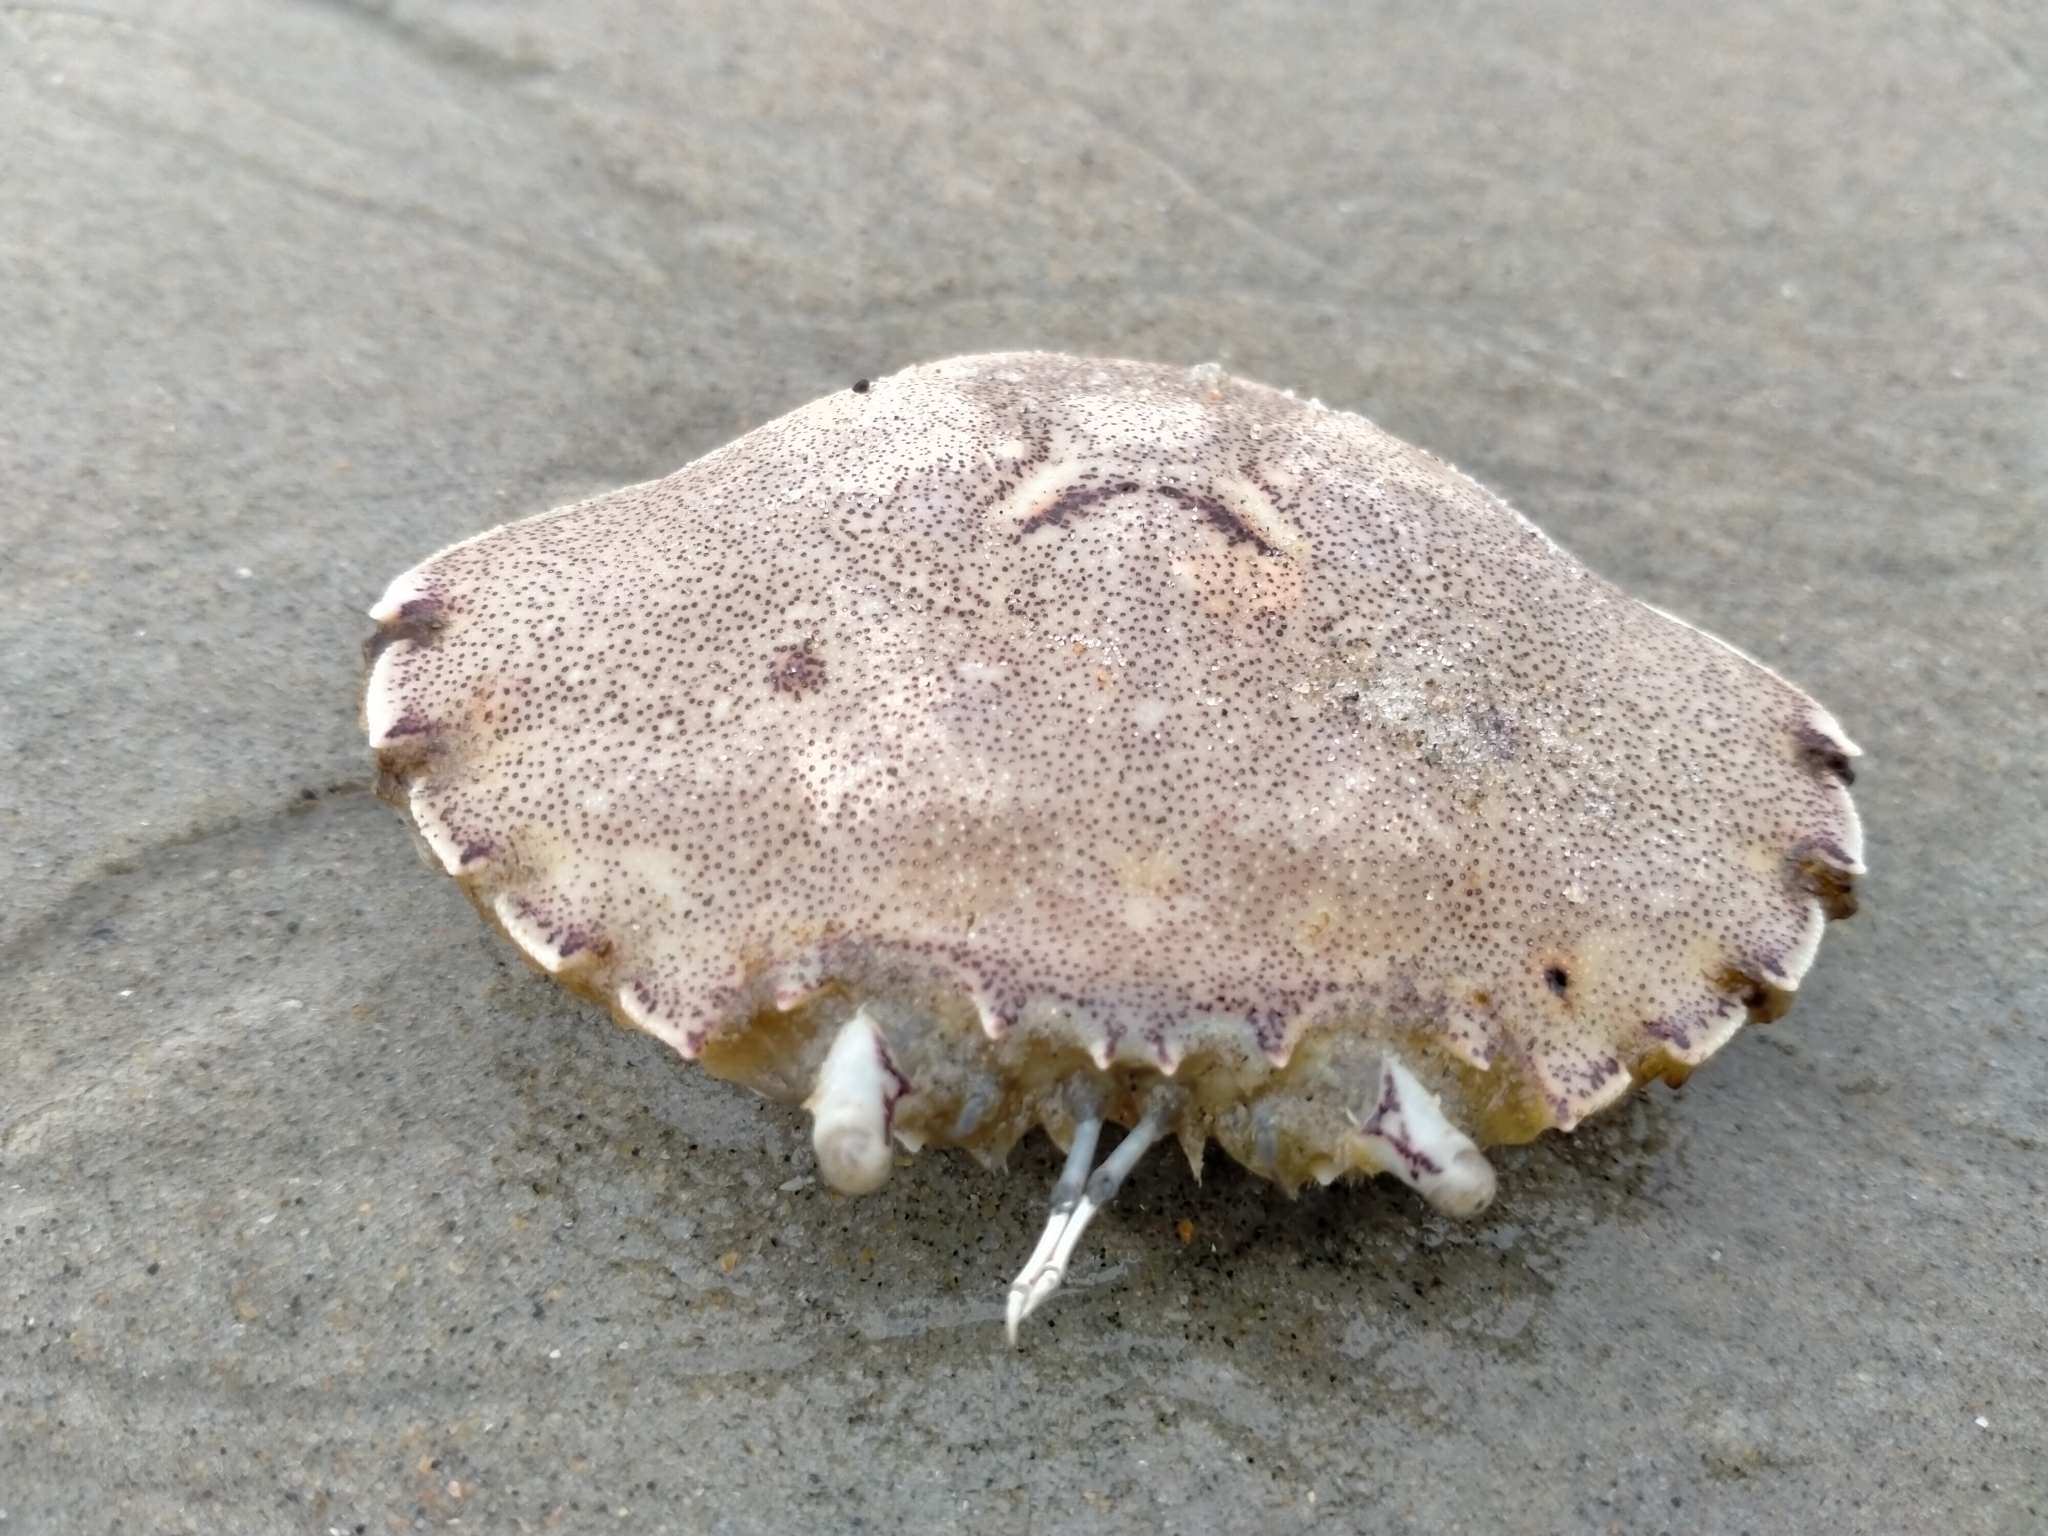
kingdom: Animalia
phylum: Arthropoda
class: Malacostraca
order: Decapoda
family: Ovalipidae
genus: Ovalipes
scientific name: Ovalipes catharus
